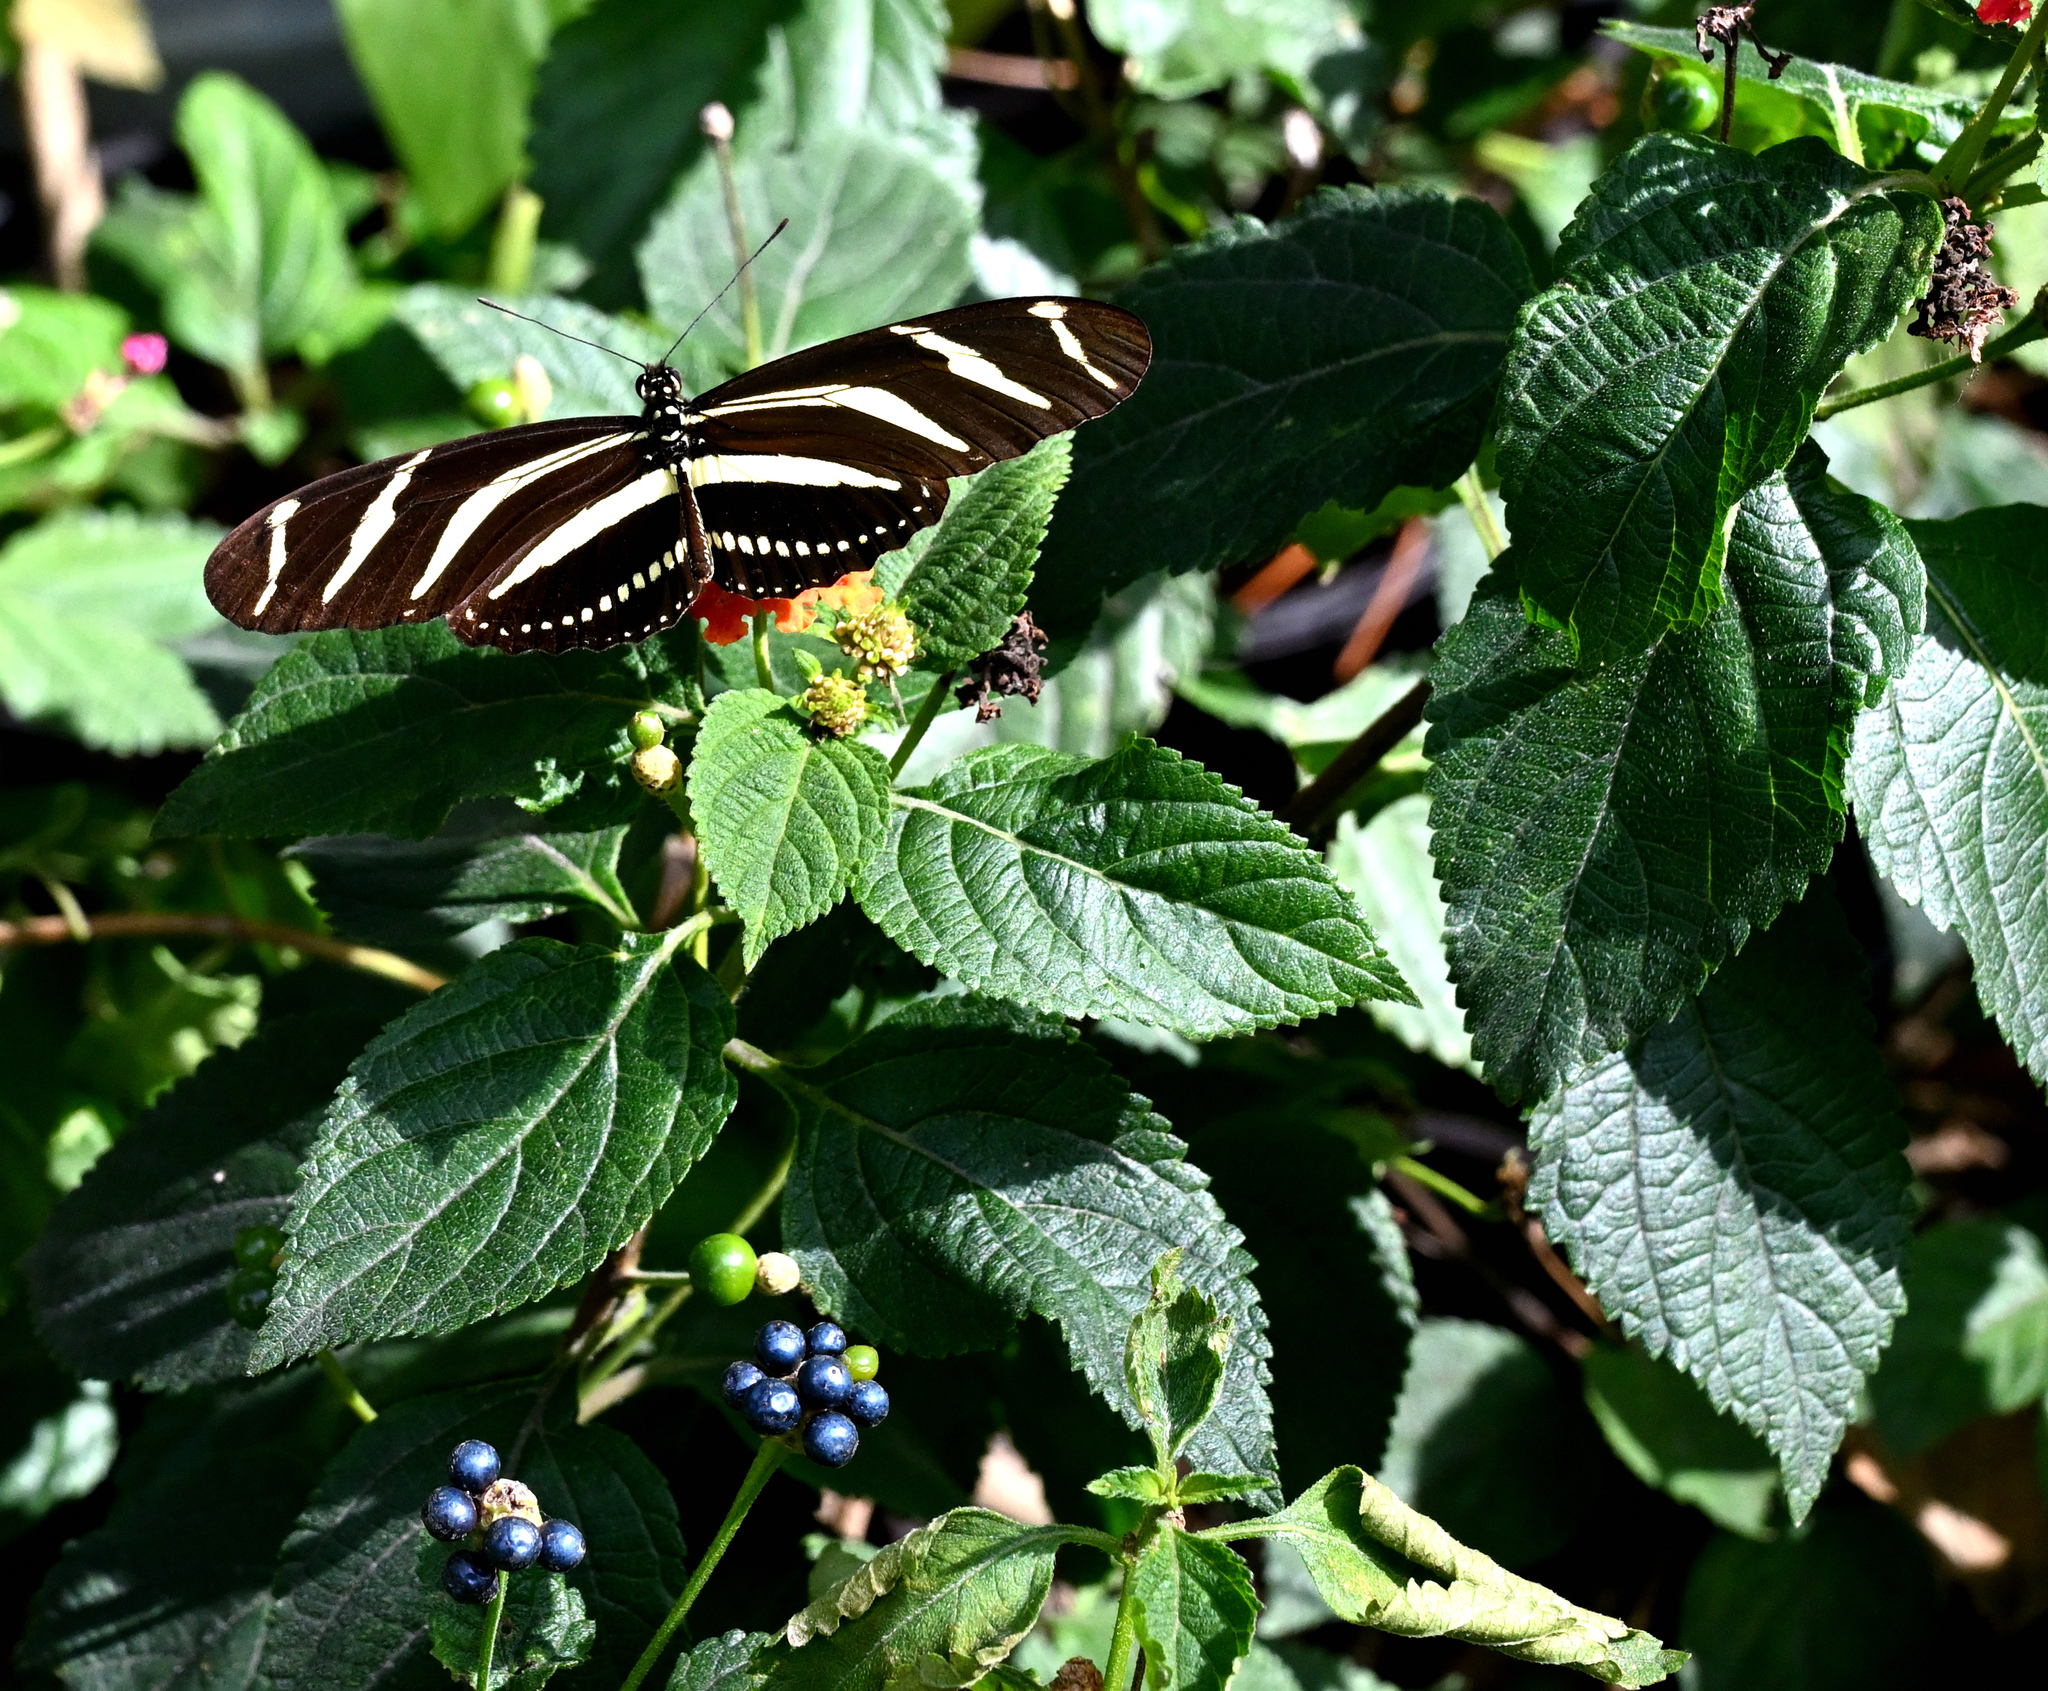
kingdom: Animalia
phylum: Arthropoda
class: Insecta
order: Lepidoptera
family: Nymphalidae
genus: Heliconius
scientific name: Heliconius charithonia
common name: Zebra long wing
